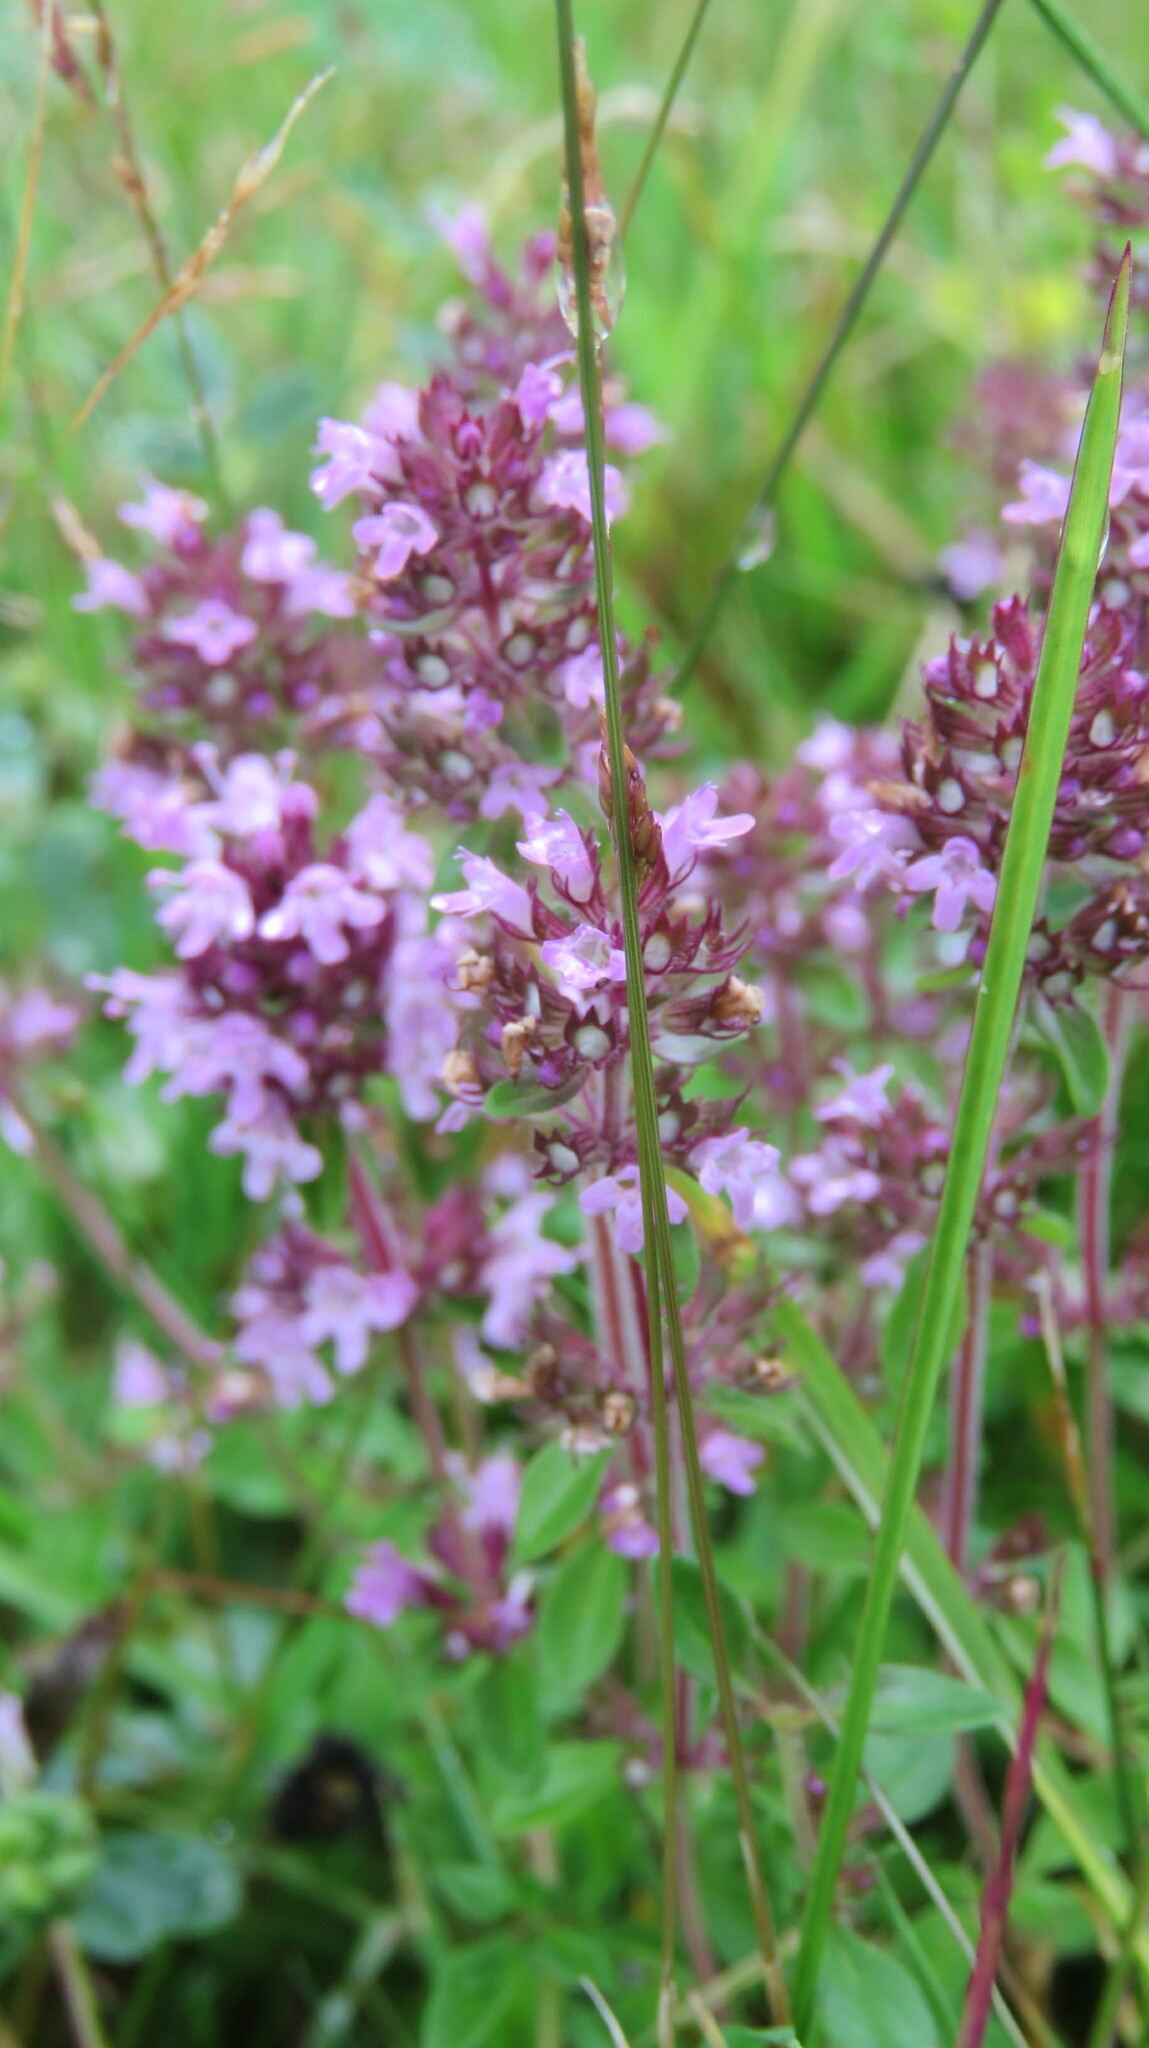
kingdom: Plantae
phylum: Tracheophyta
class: Magnoliopsida
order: Lamiales
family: Lamiaceae
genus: Thymus
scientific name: Thymus pulegioides
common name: Large thyme
